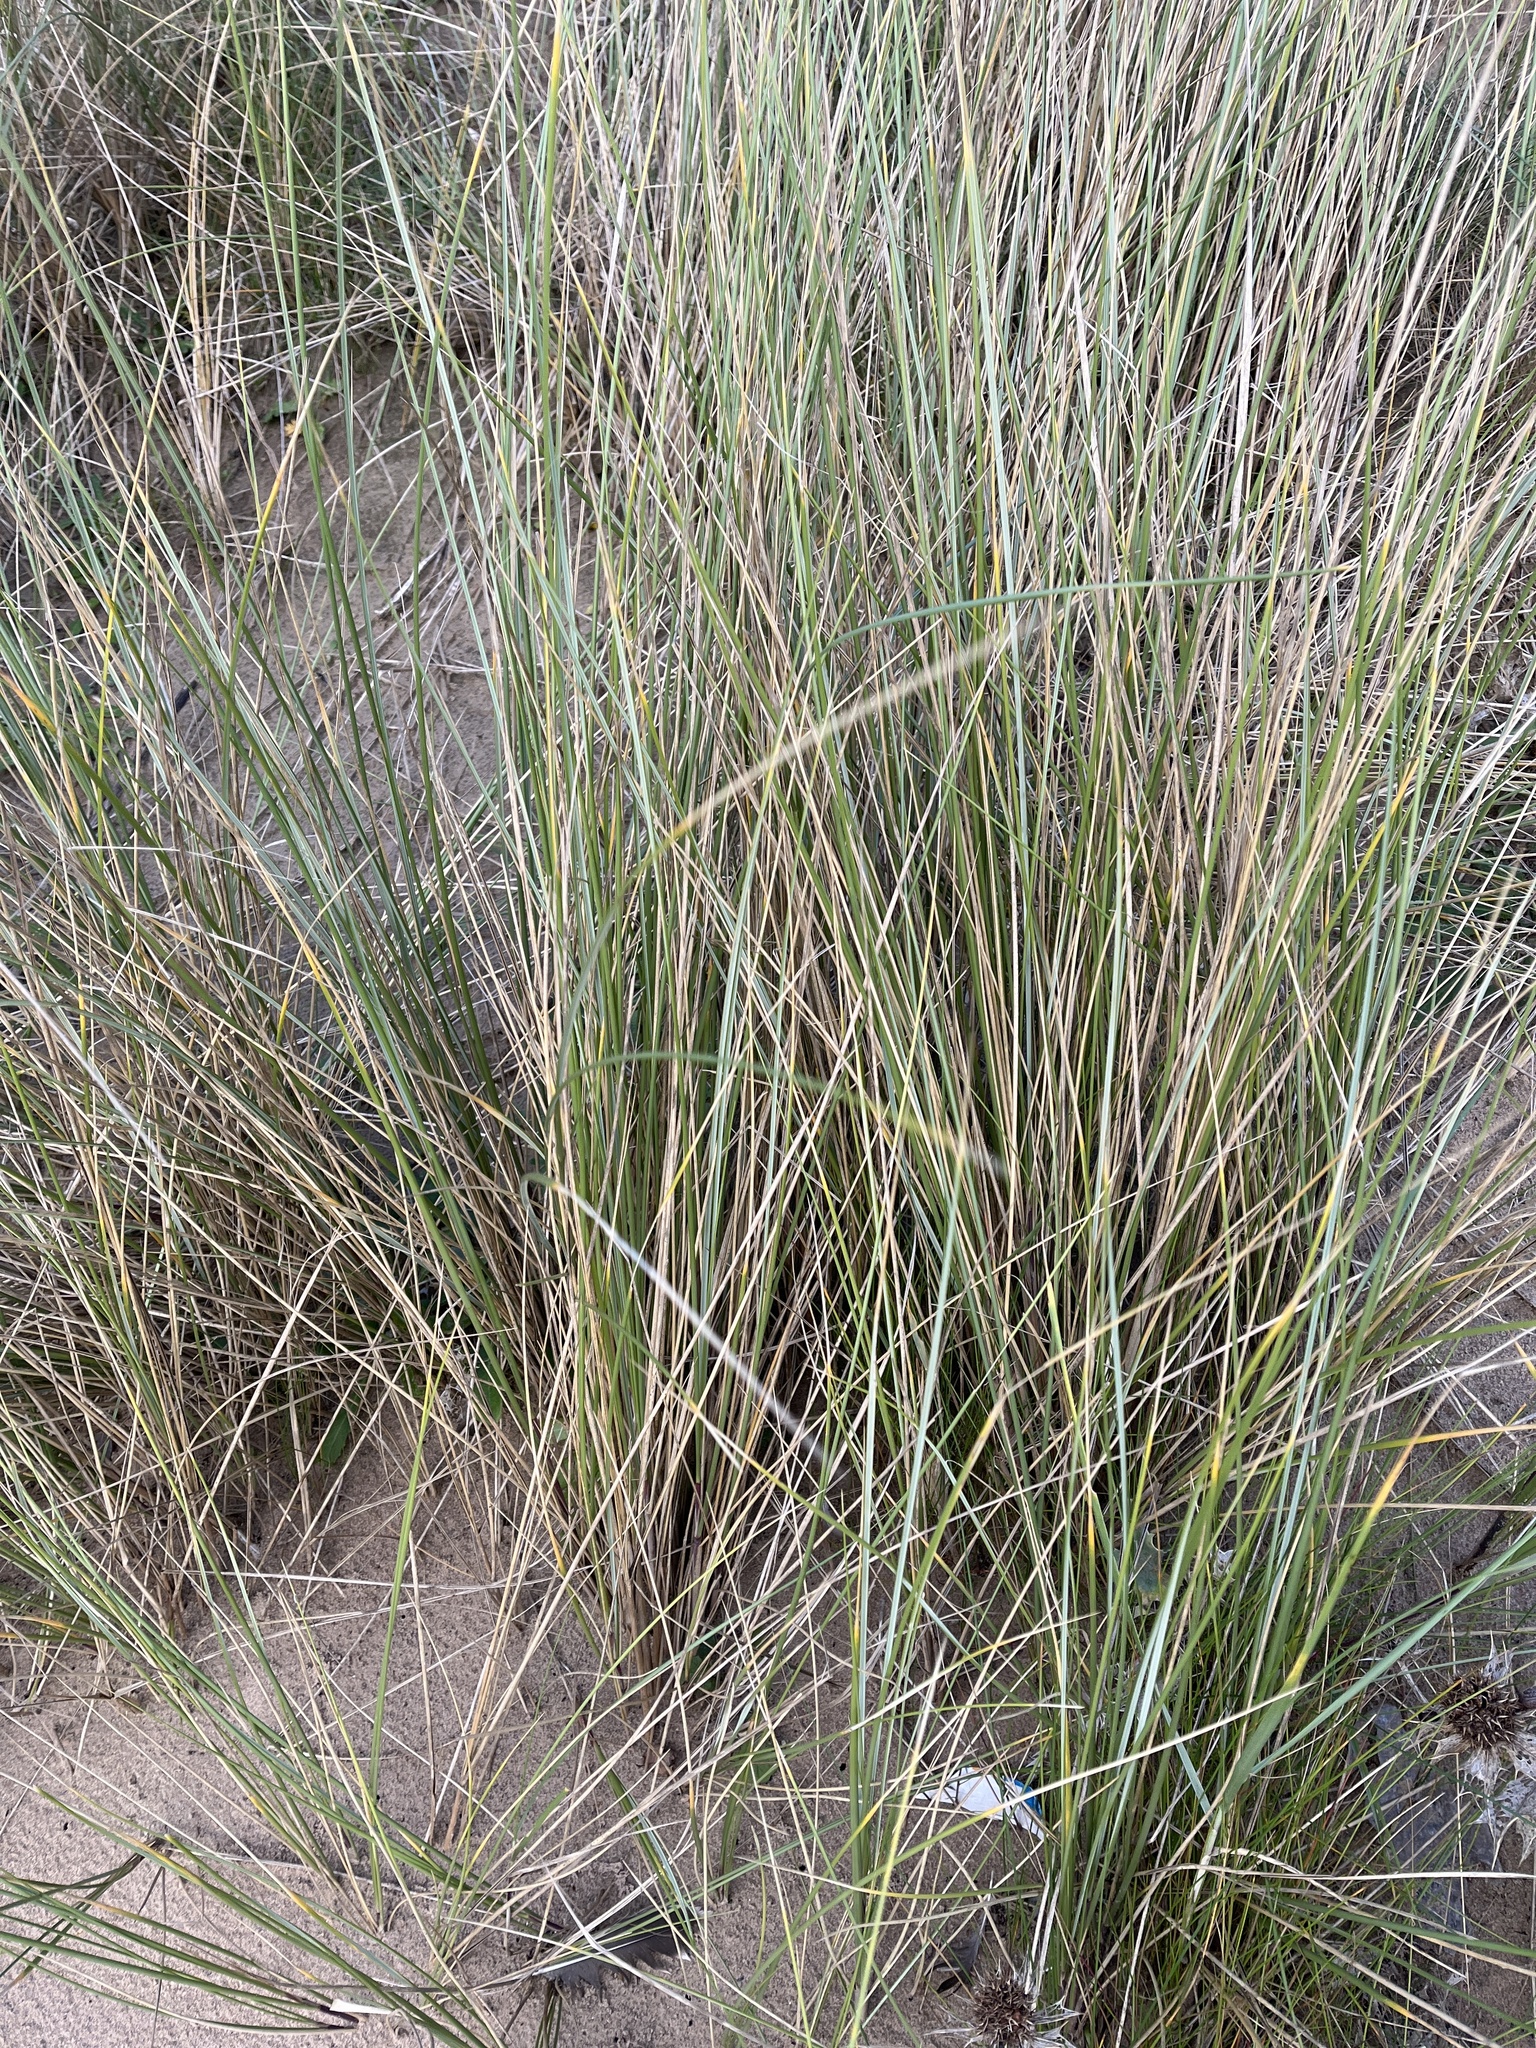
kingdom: Plantae
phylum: Tracheophyta
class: Liliopsida
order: Poales
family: Poaceae
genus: Calamagrostis
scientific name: Calamagrostis arenaria
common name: European beachgrass
